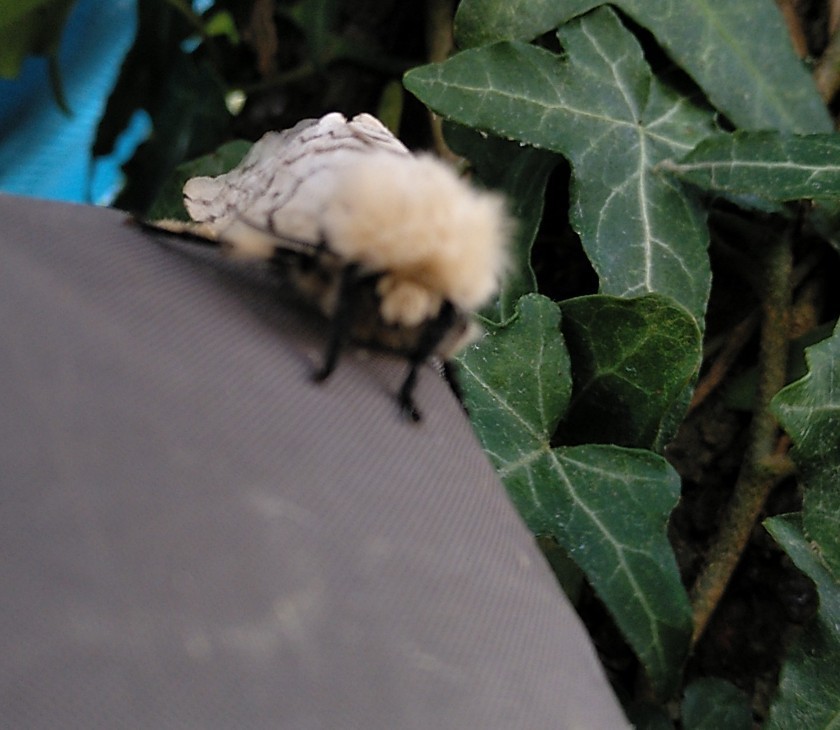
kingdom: Animalia
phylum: Arthropoda
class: Insecta
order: Lepidoptera
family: Erebidae
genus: Lymantria
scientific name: Lymantria dispar
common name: Gypsy moth
